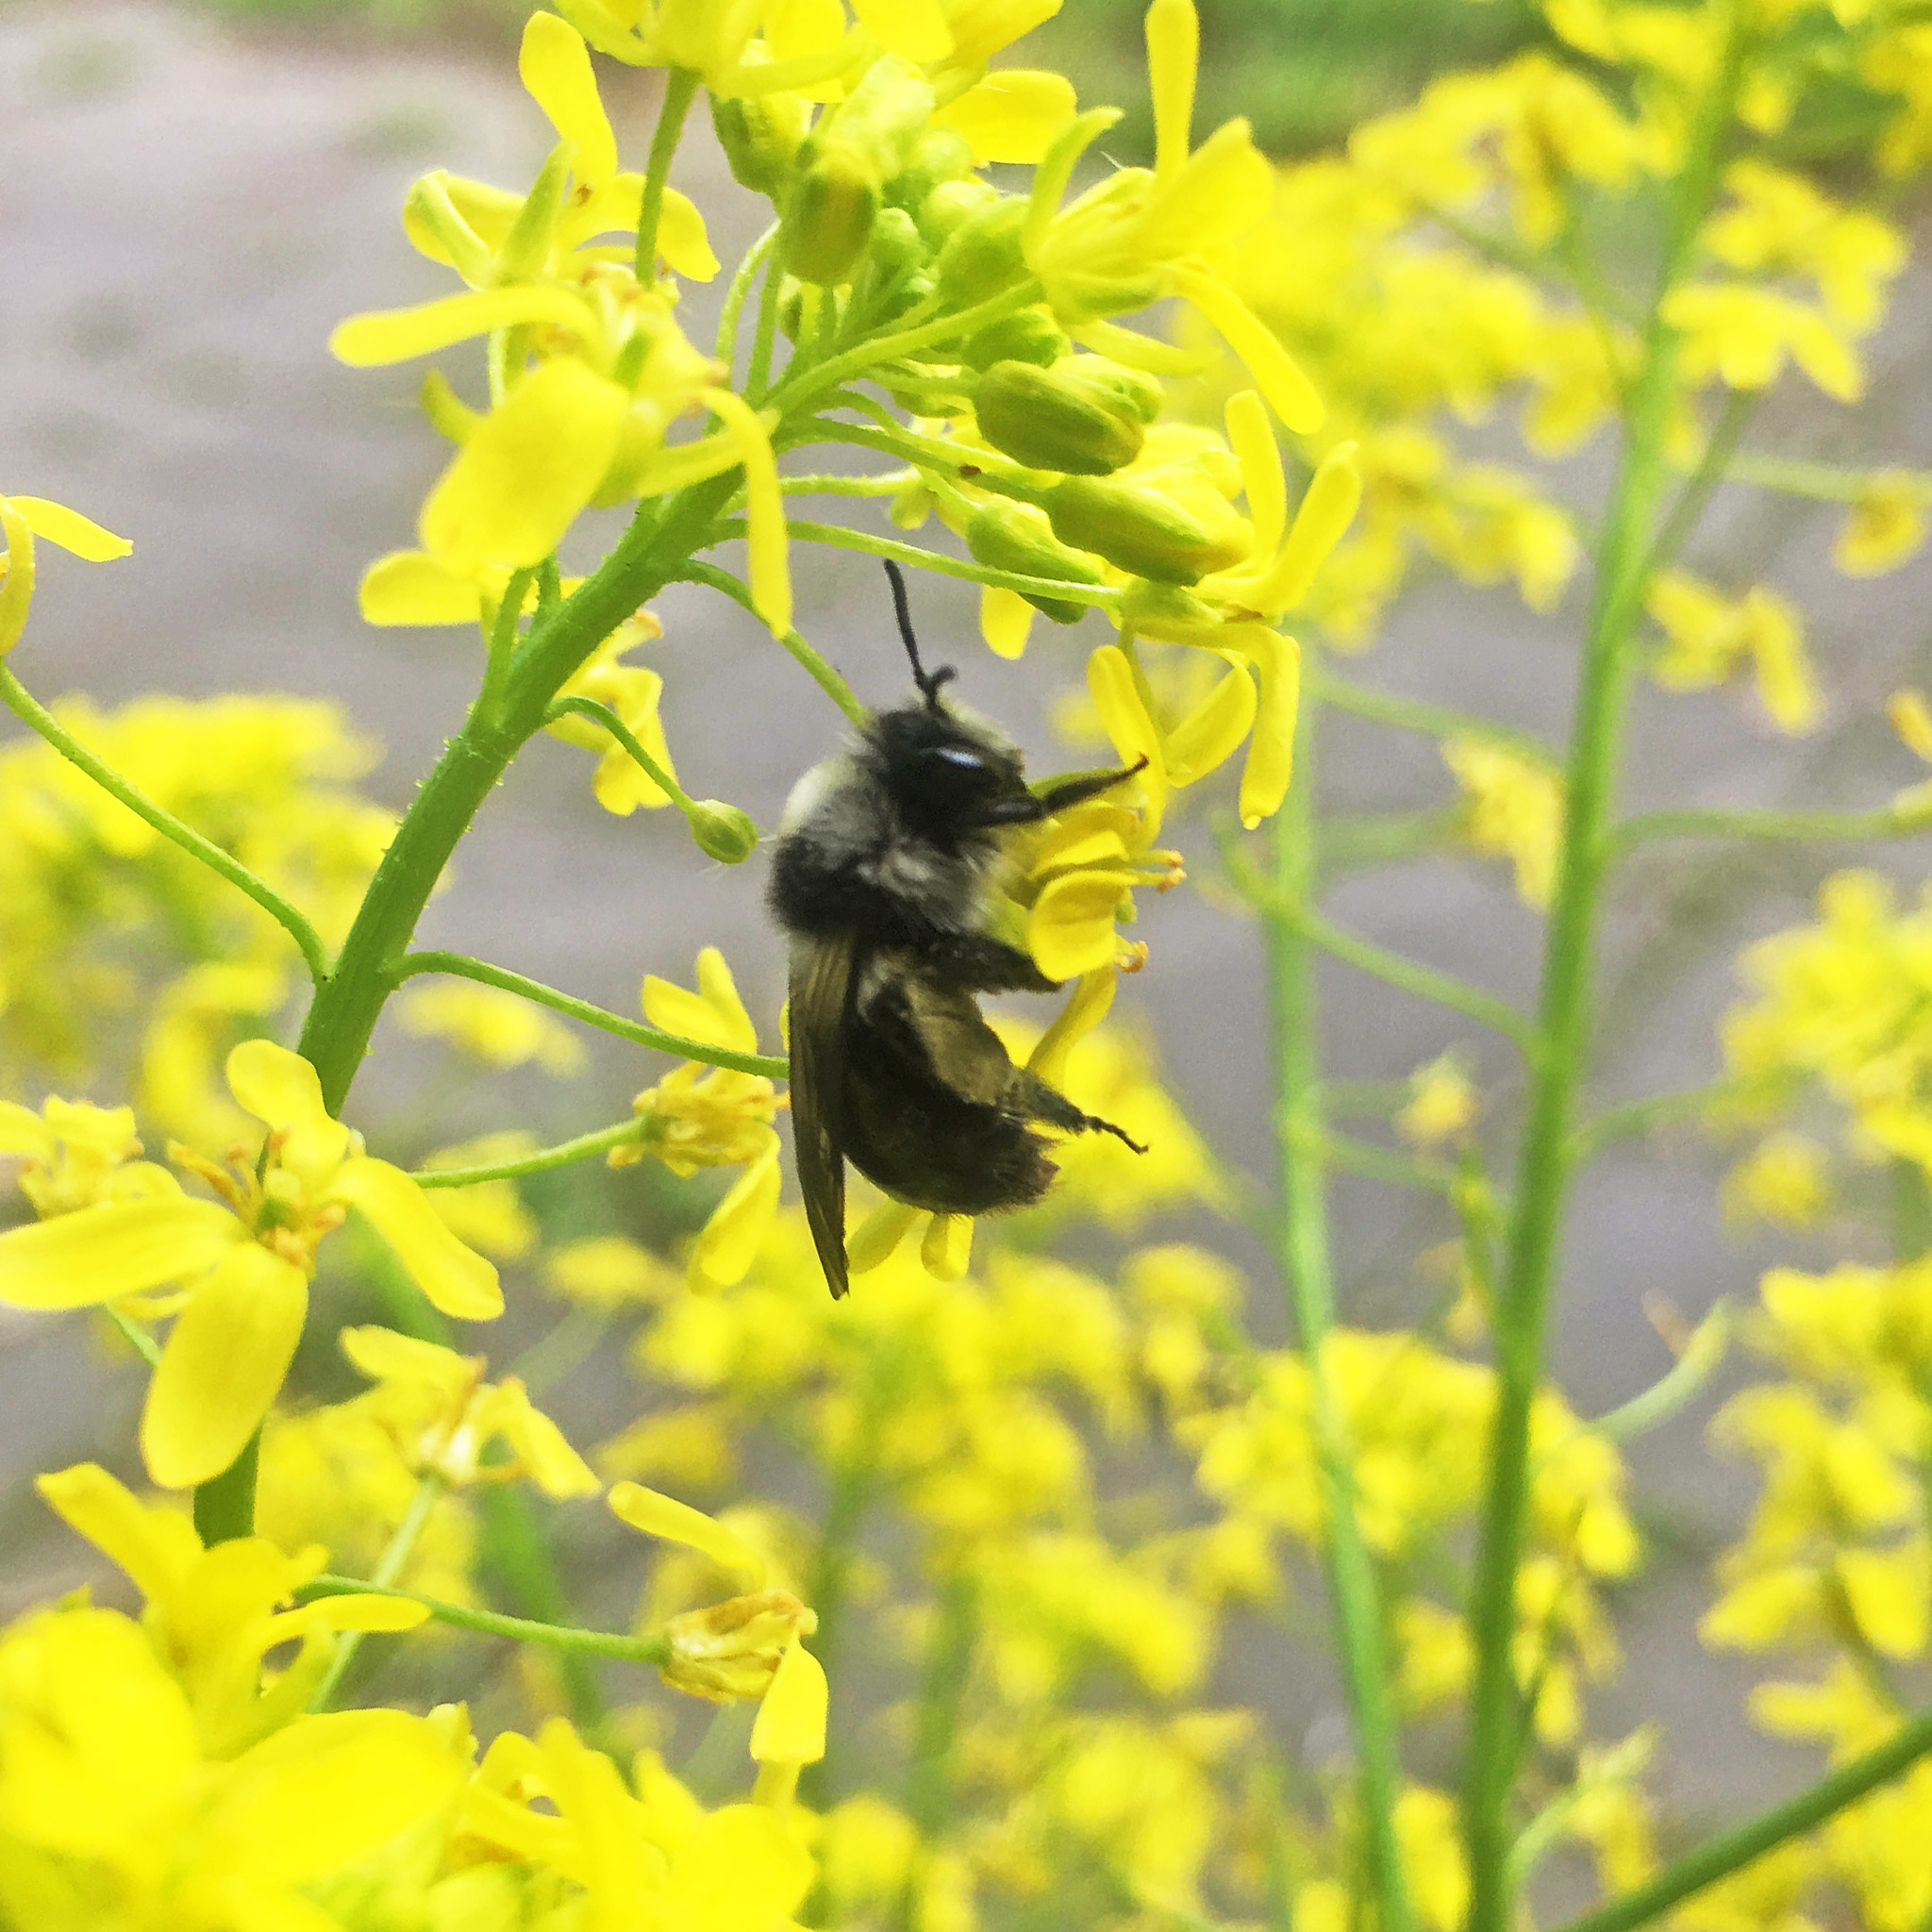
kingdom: Animalia
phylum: Arthropoda
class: Insecta
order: Hymenoptera
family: Andrenidae
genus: Andrena
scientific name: Andrena cineraria
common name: Ashy mining bee
